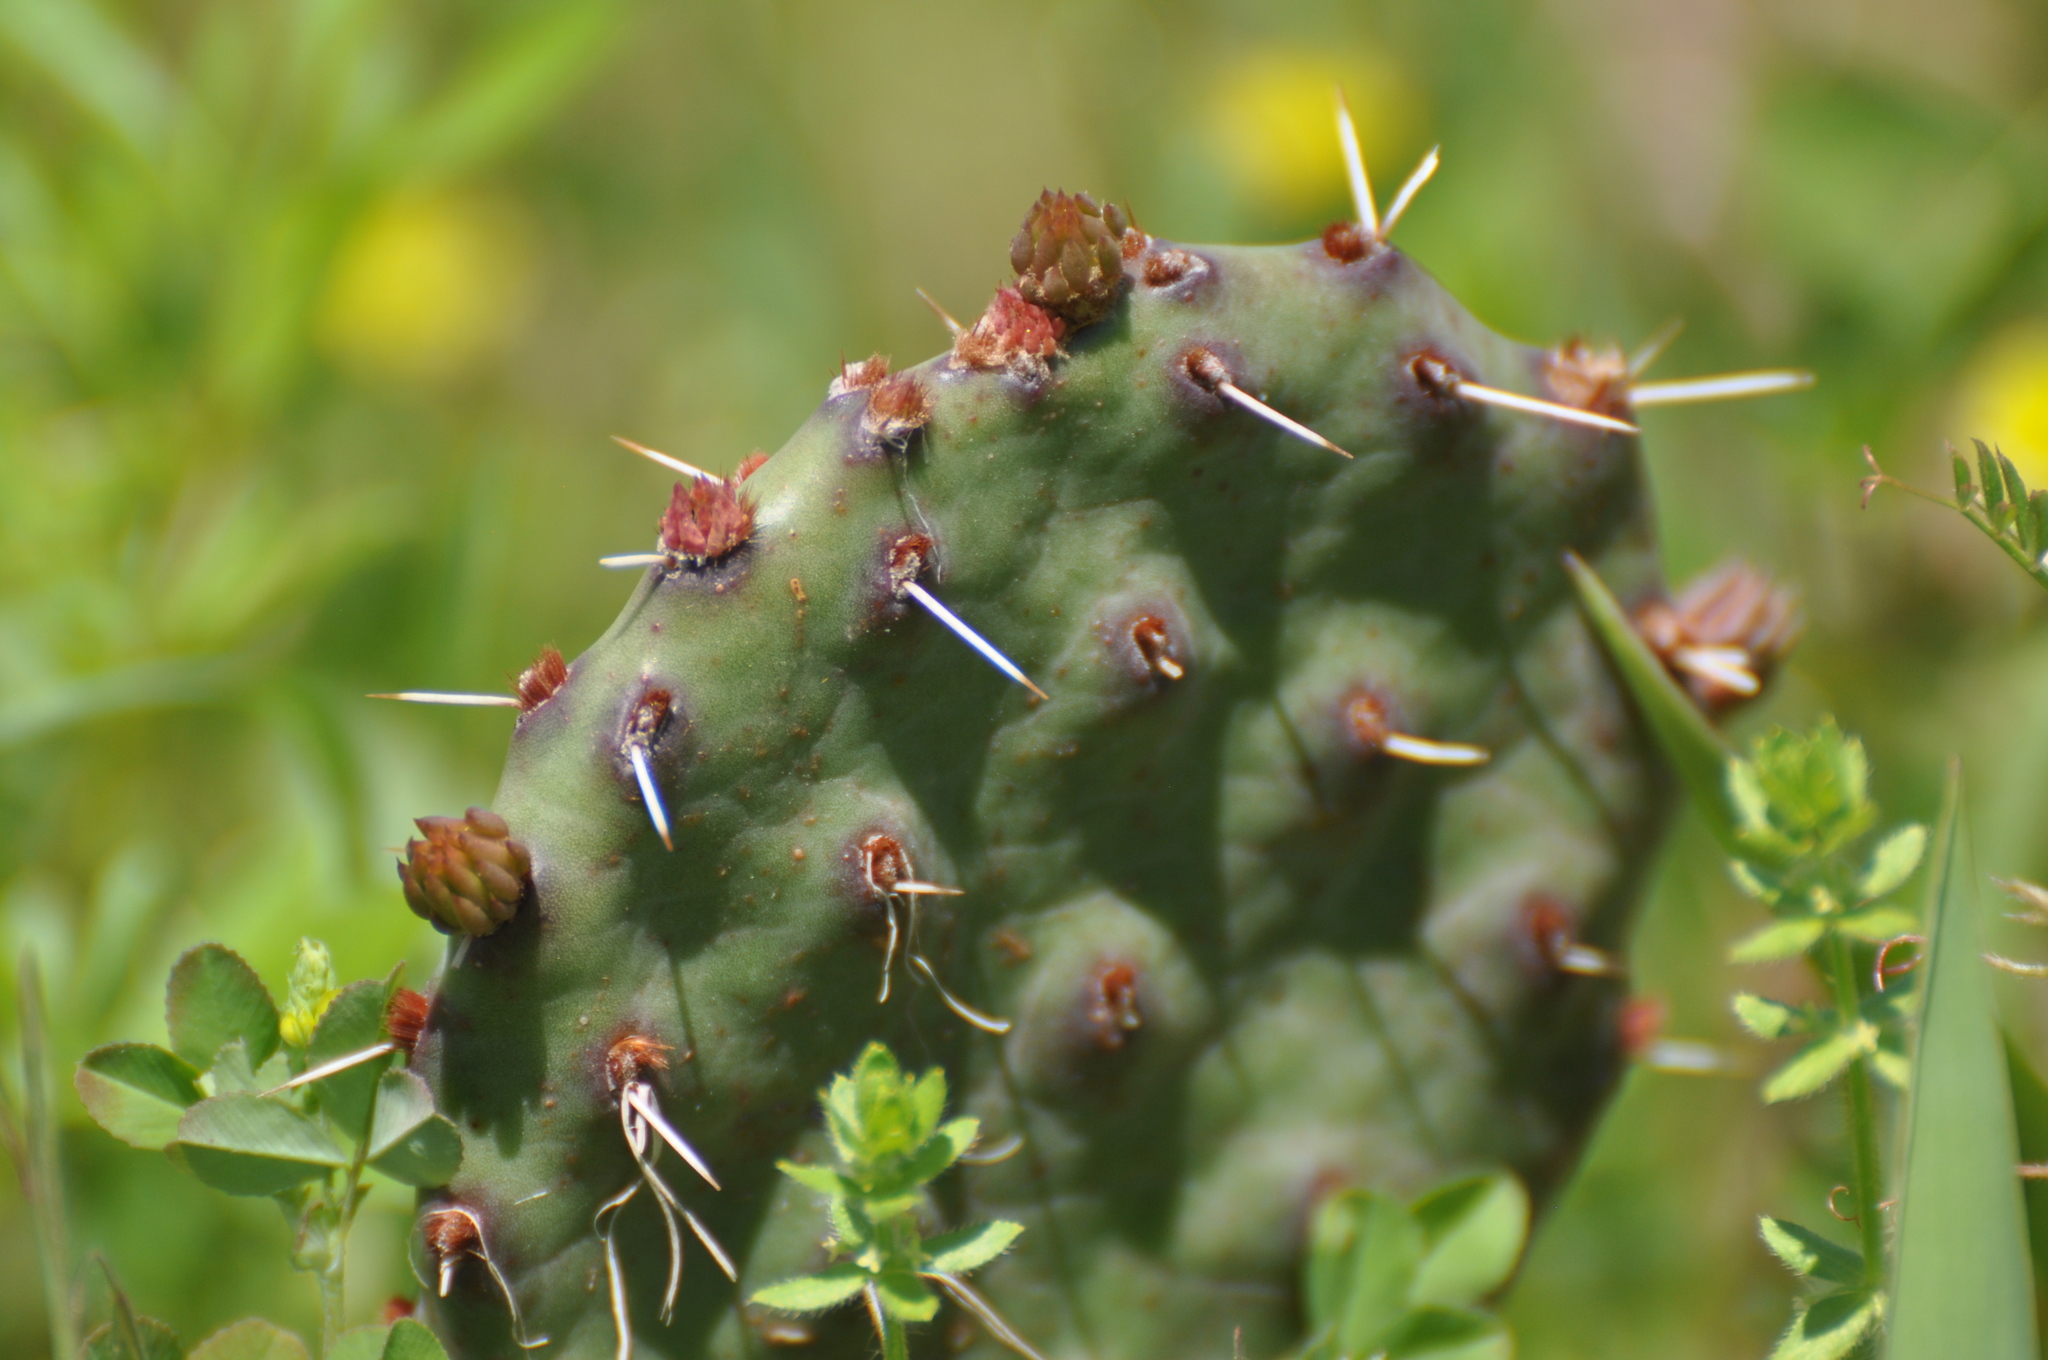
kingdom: Plantae
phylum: Tracheophyta
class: Magnoliopsida
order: Caryophyllales
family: Cactaceae
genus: Opuntia
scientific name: Opuntia macrorhiza
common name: Grassland pricklypear
